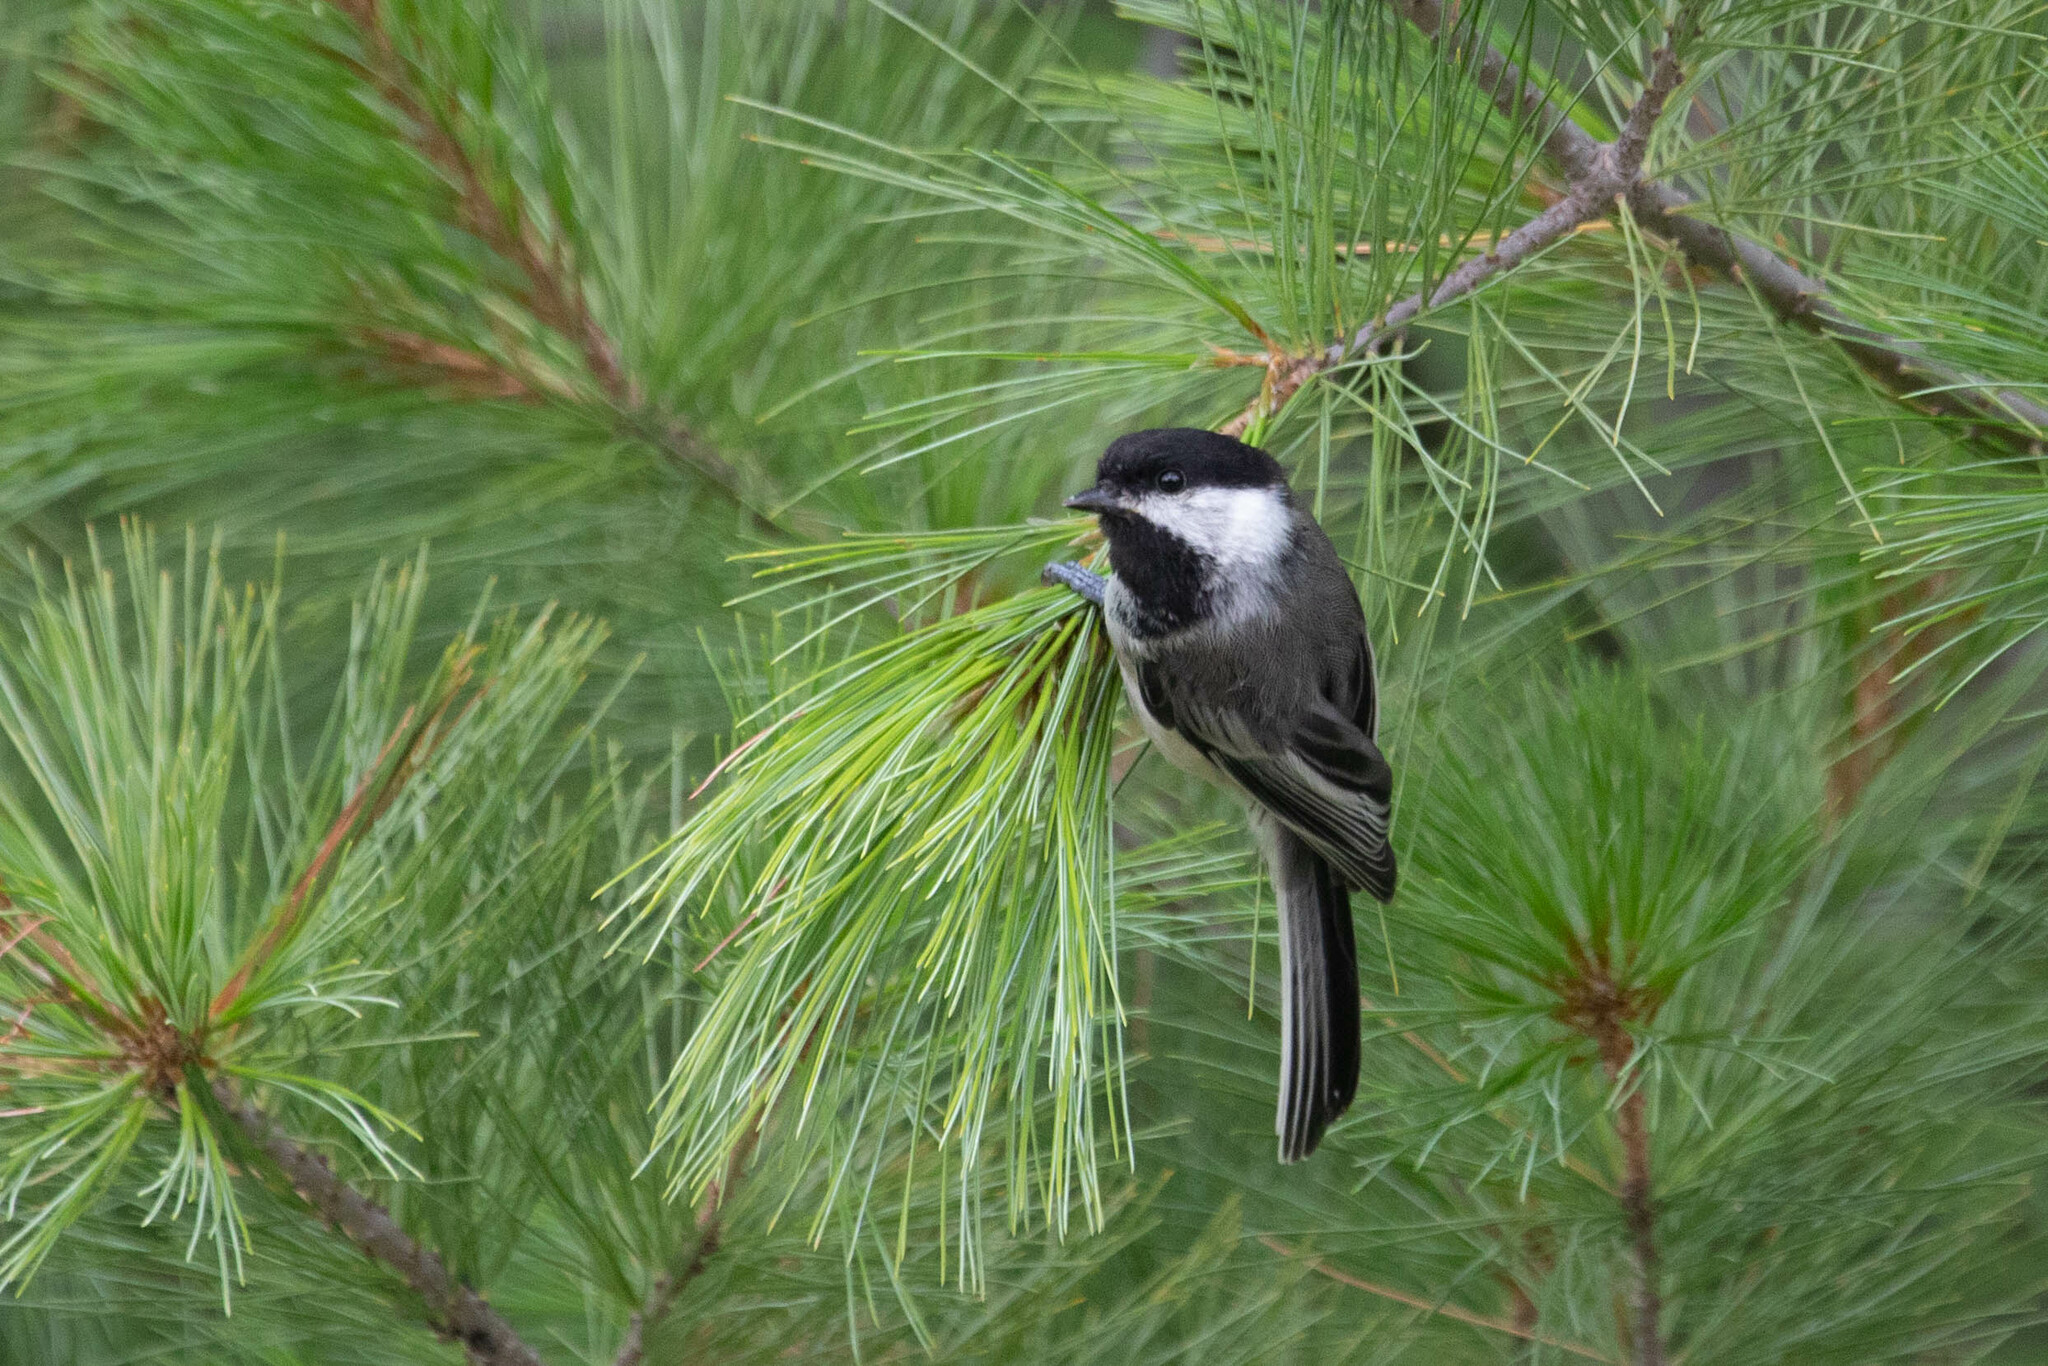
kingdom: Animalia
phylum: Chordata
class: Aves
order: Passeriformes
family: Paridae
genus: Poecile
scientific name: Poecile atricapillus
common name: Black-capped chickadee
